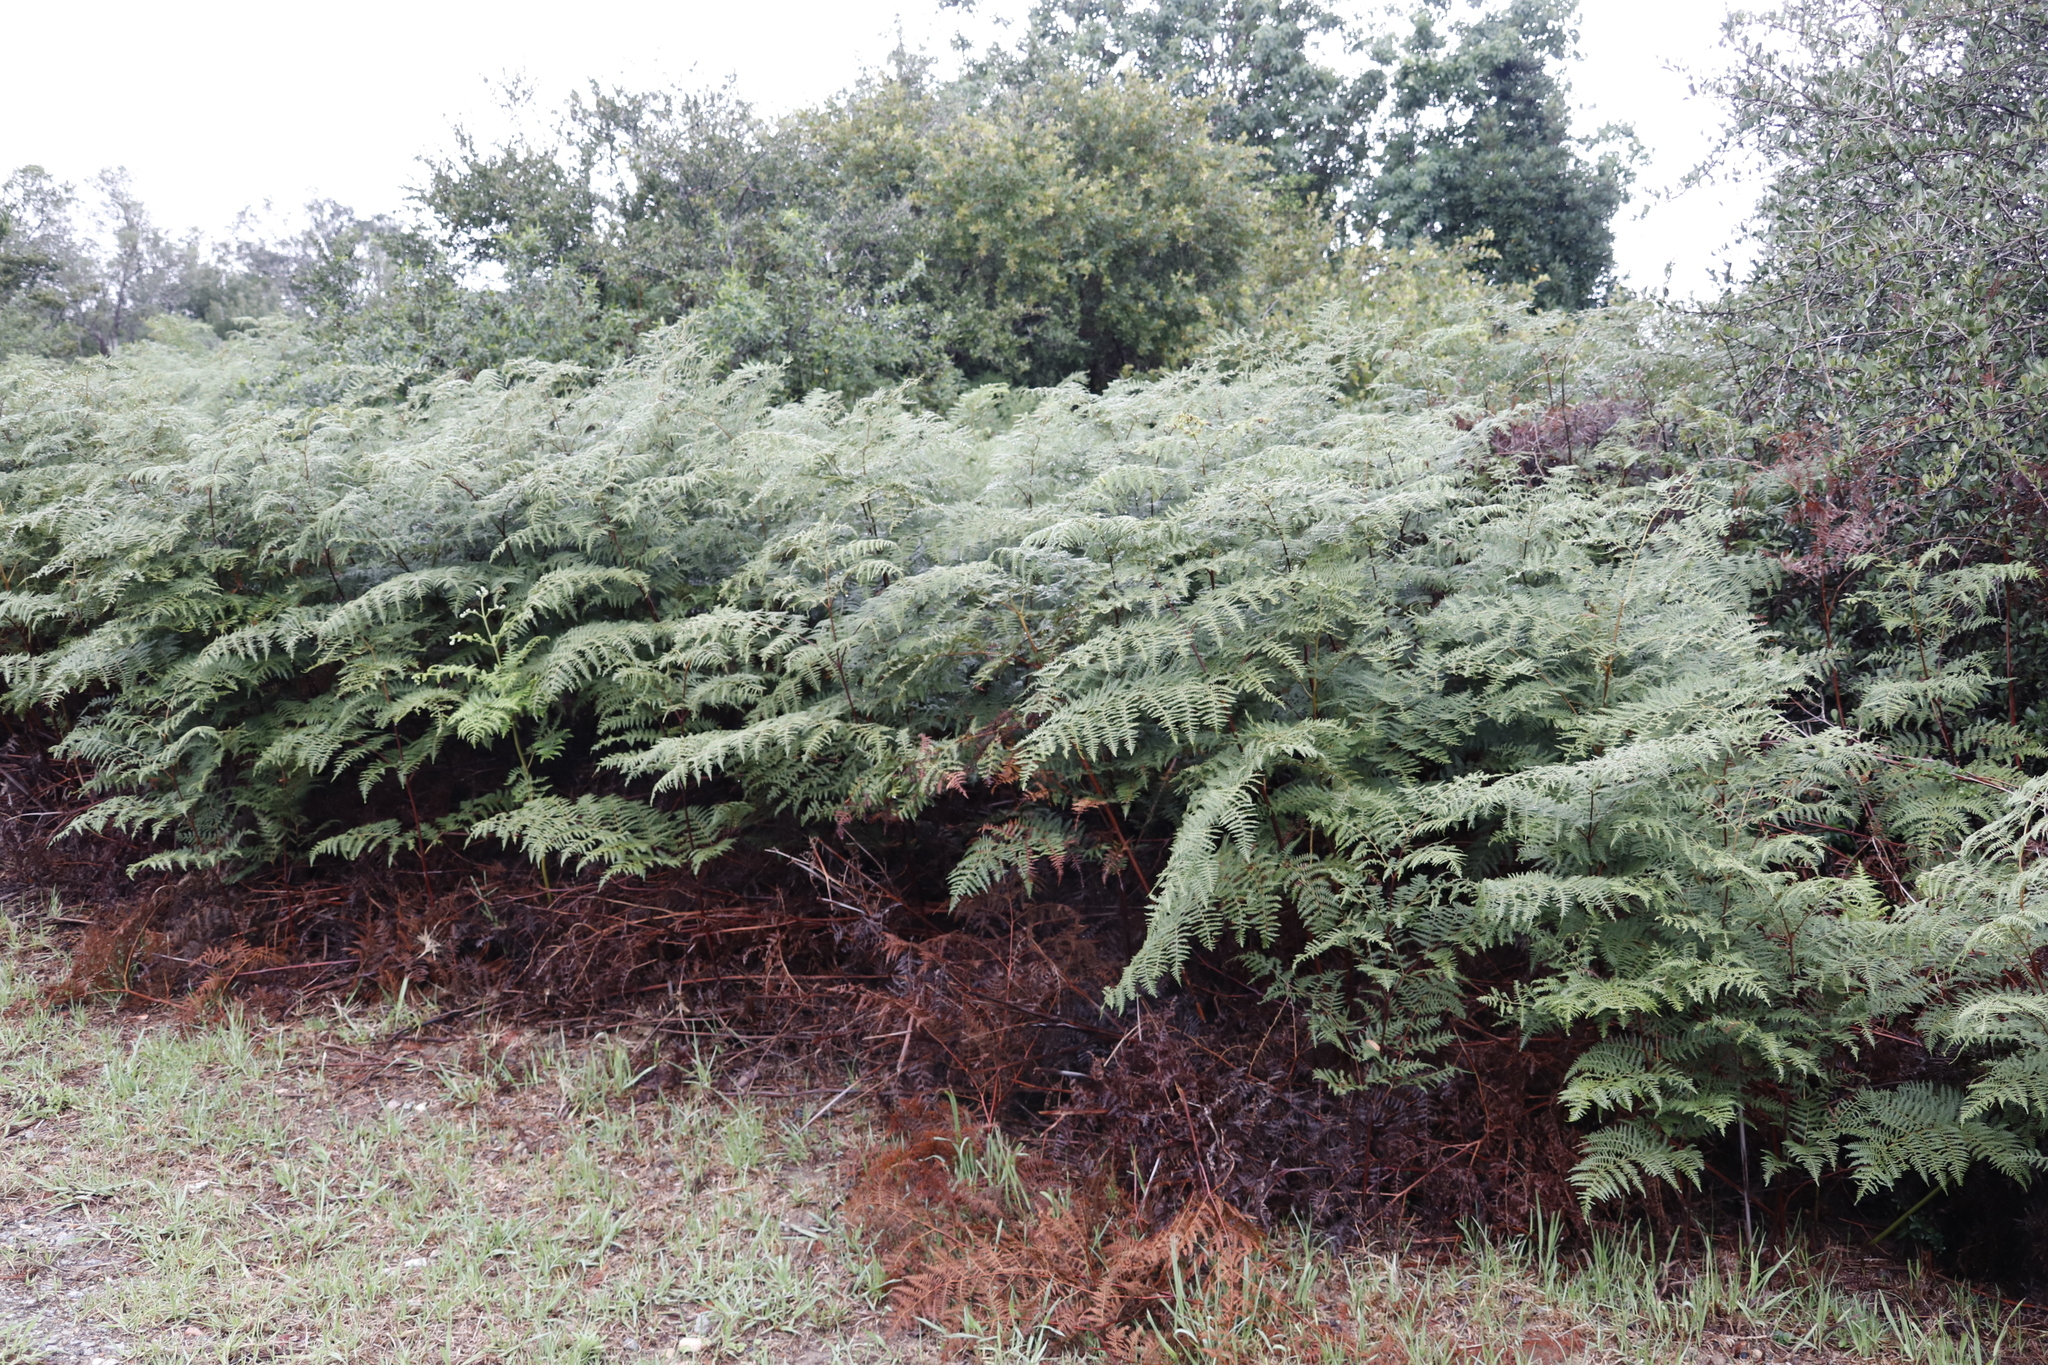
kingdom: Plantae
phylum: Tracheophyta
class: Polypodiopsida
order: Polypodiales
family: Dennstaedtiaceae
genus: Pteridium
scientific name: Pteridium aquilinum
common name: Bracken
